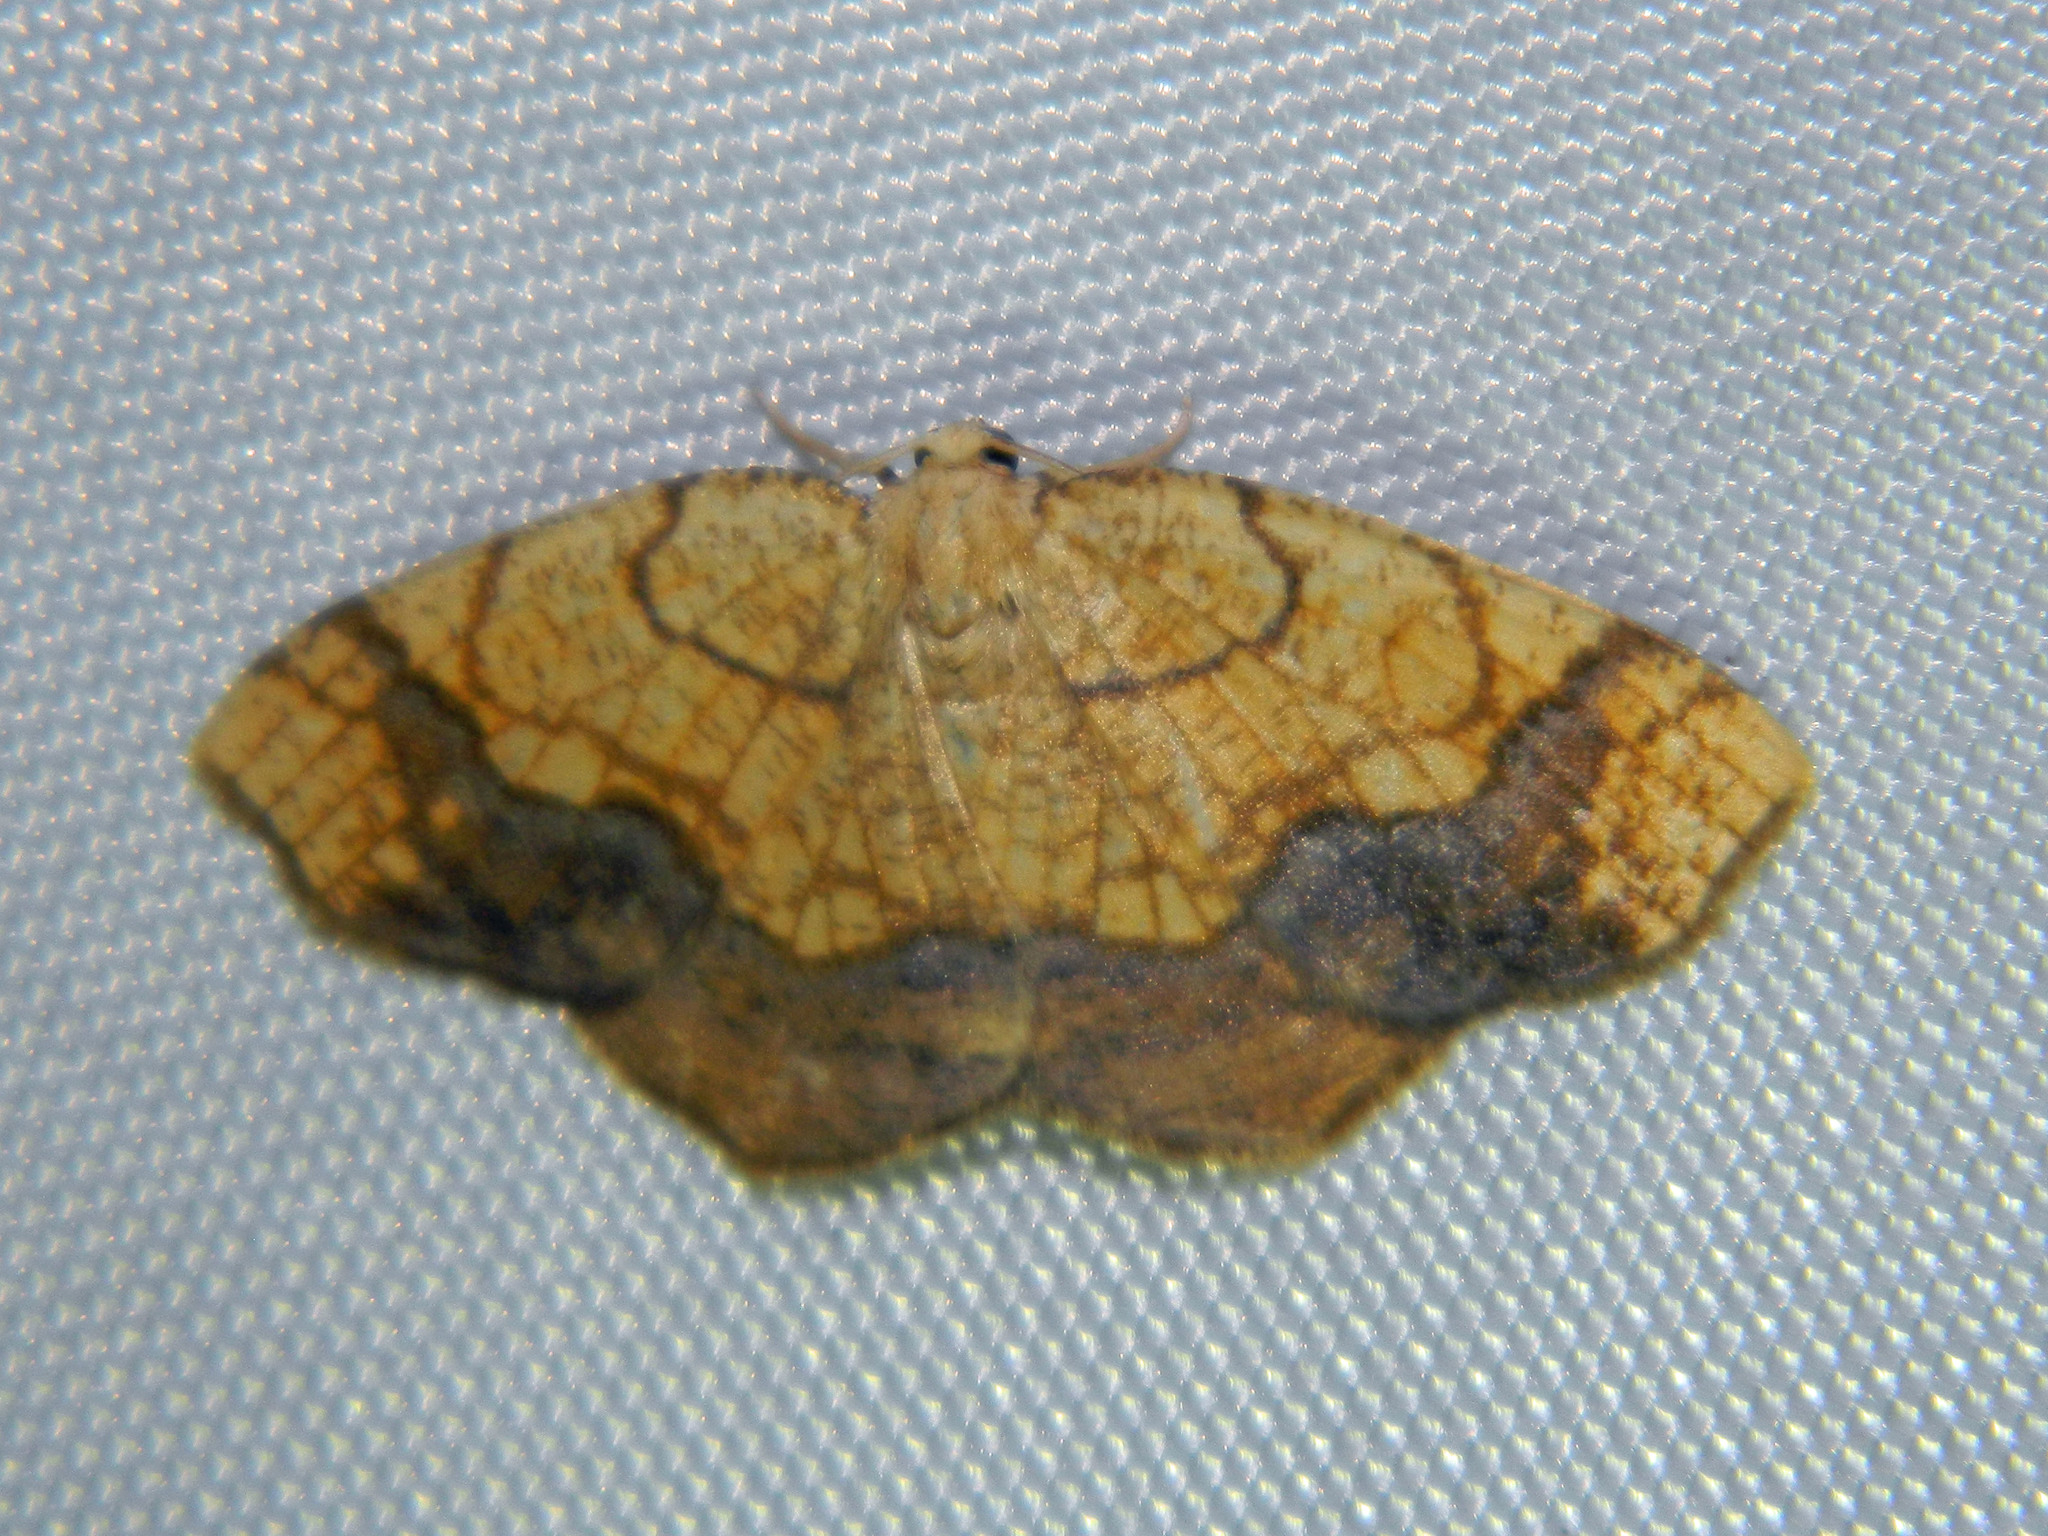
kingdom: Animalia
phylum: Arthropoda
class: Insecta
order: Lepidoptera
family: Geometridae
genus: Nematocampa
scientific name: Nematocampa resistaria
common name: Horned spanworm moth
